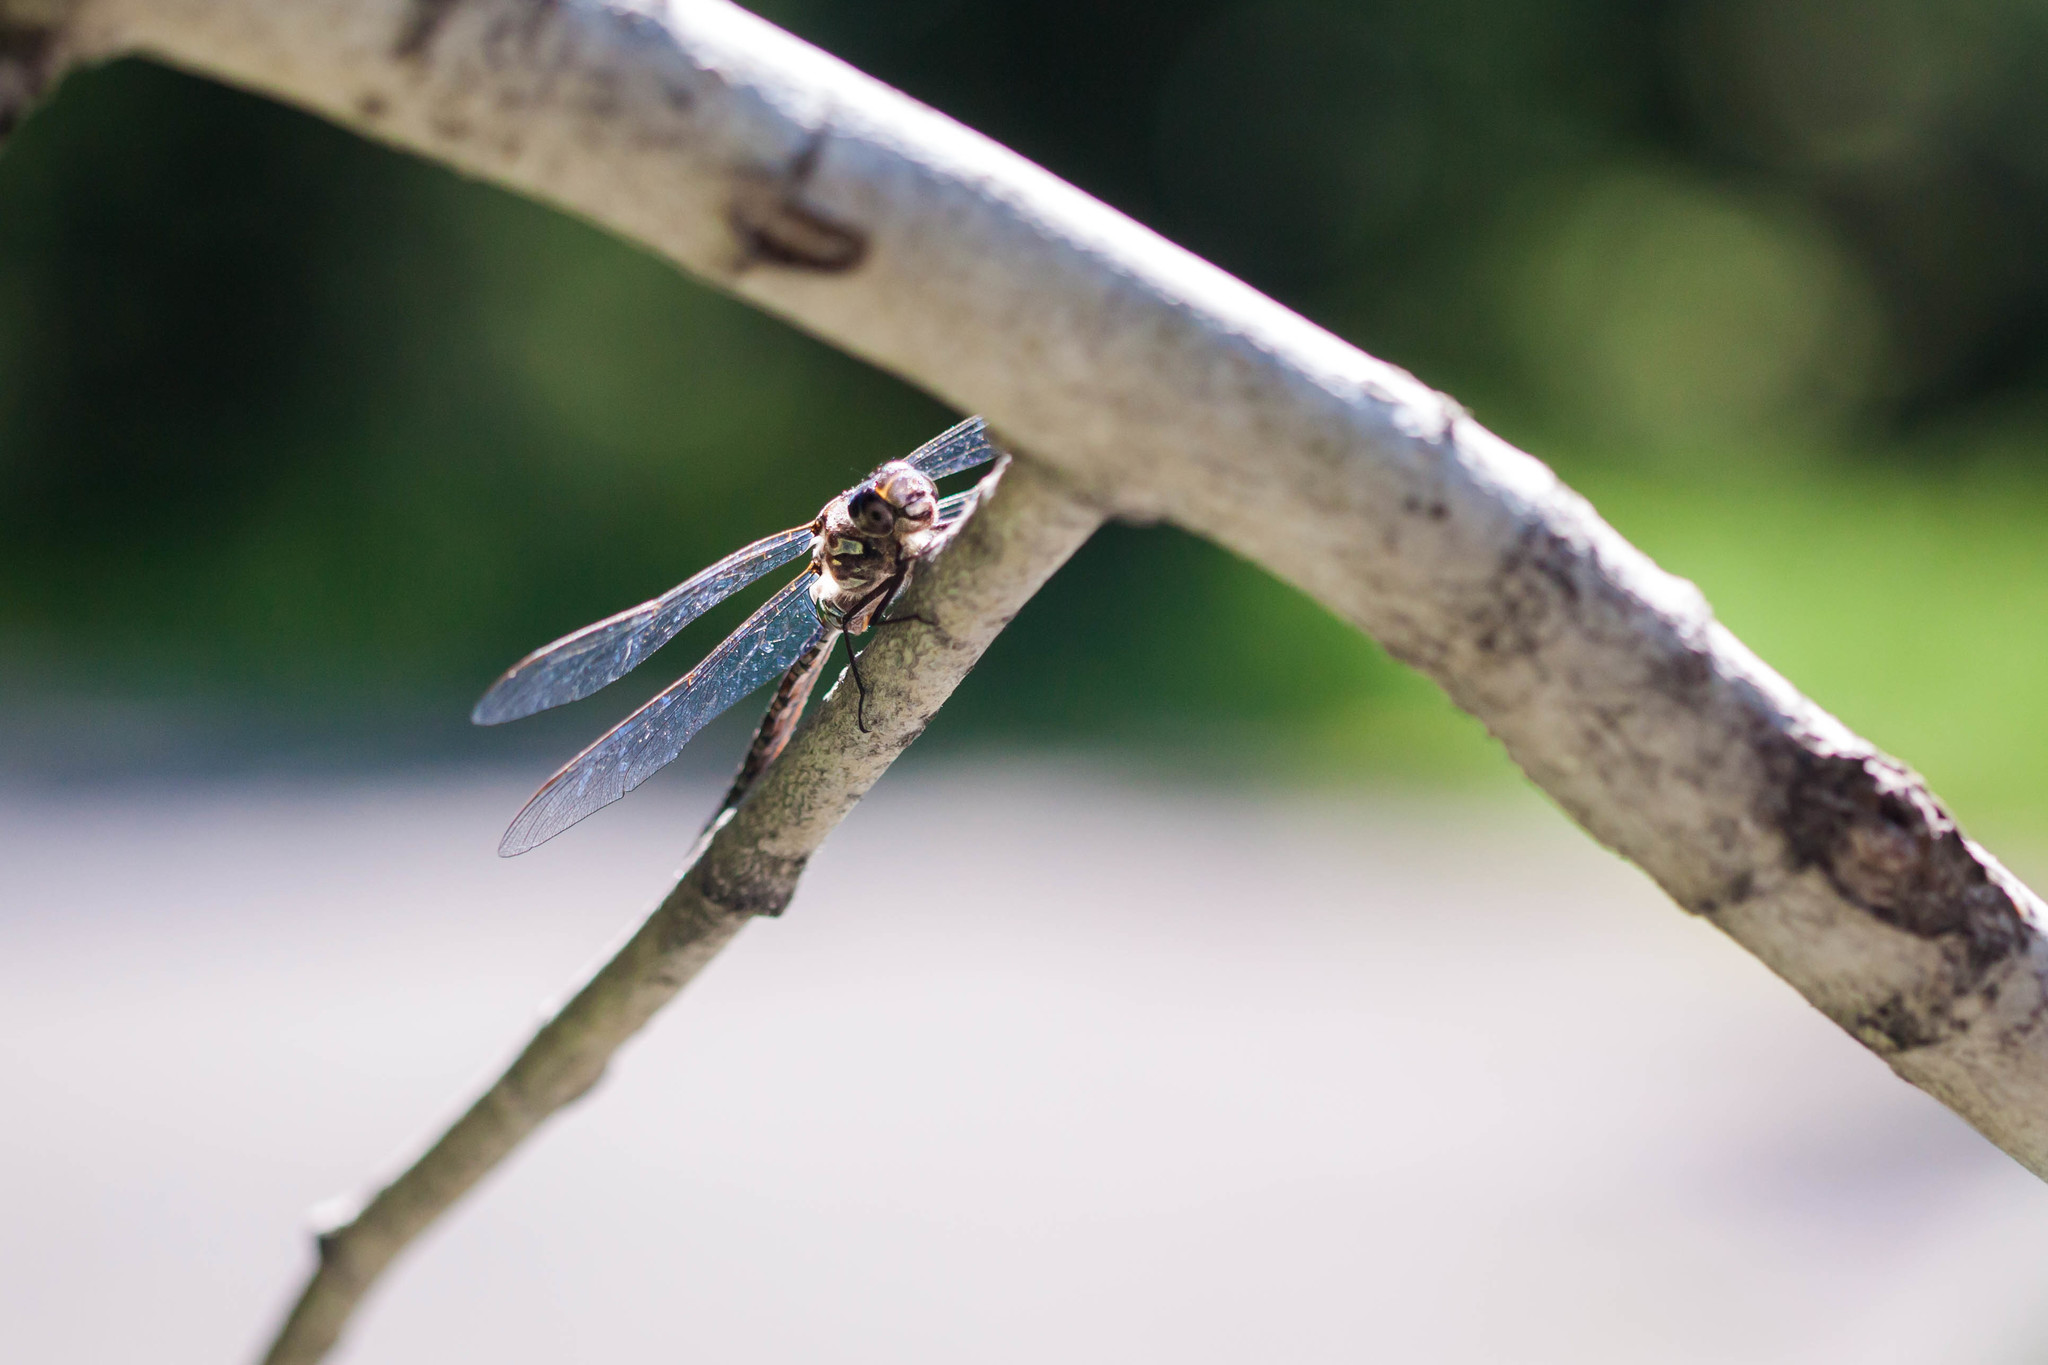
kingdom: Animalia
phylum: Arthropoda
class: Insecta
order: Odonata
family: Aeshnidae
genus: Aeshna
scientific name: Aeshna canadensis
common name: Canada darner
